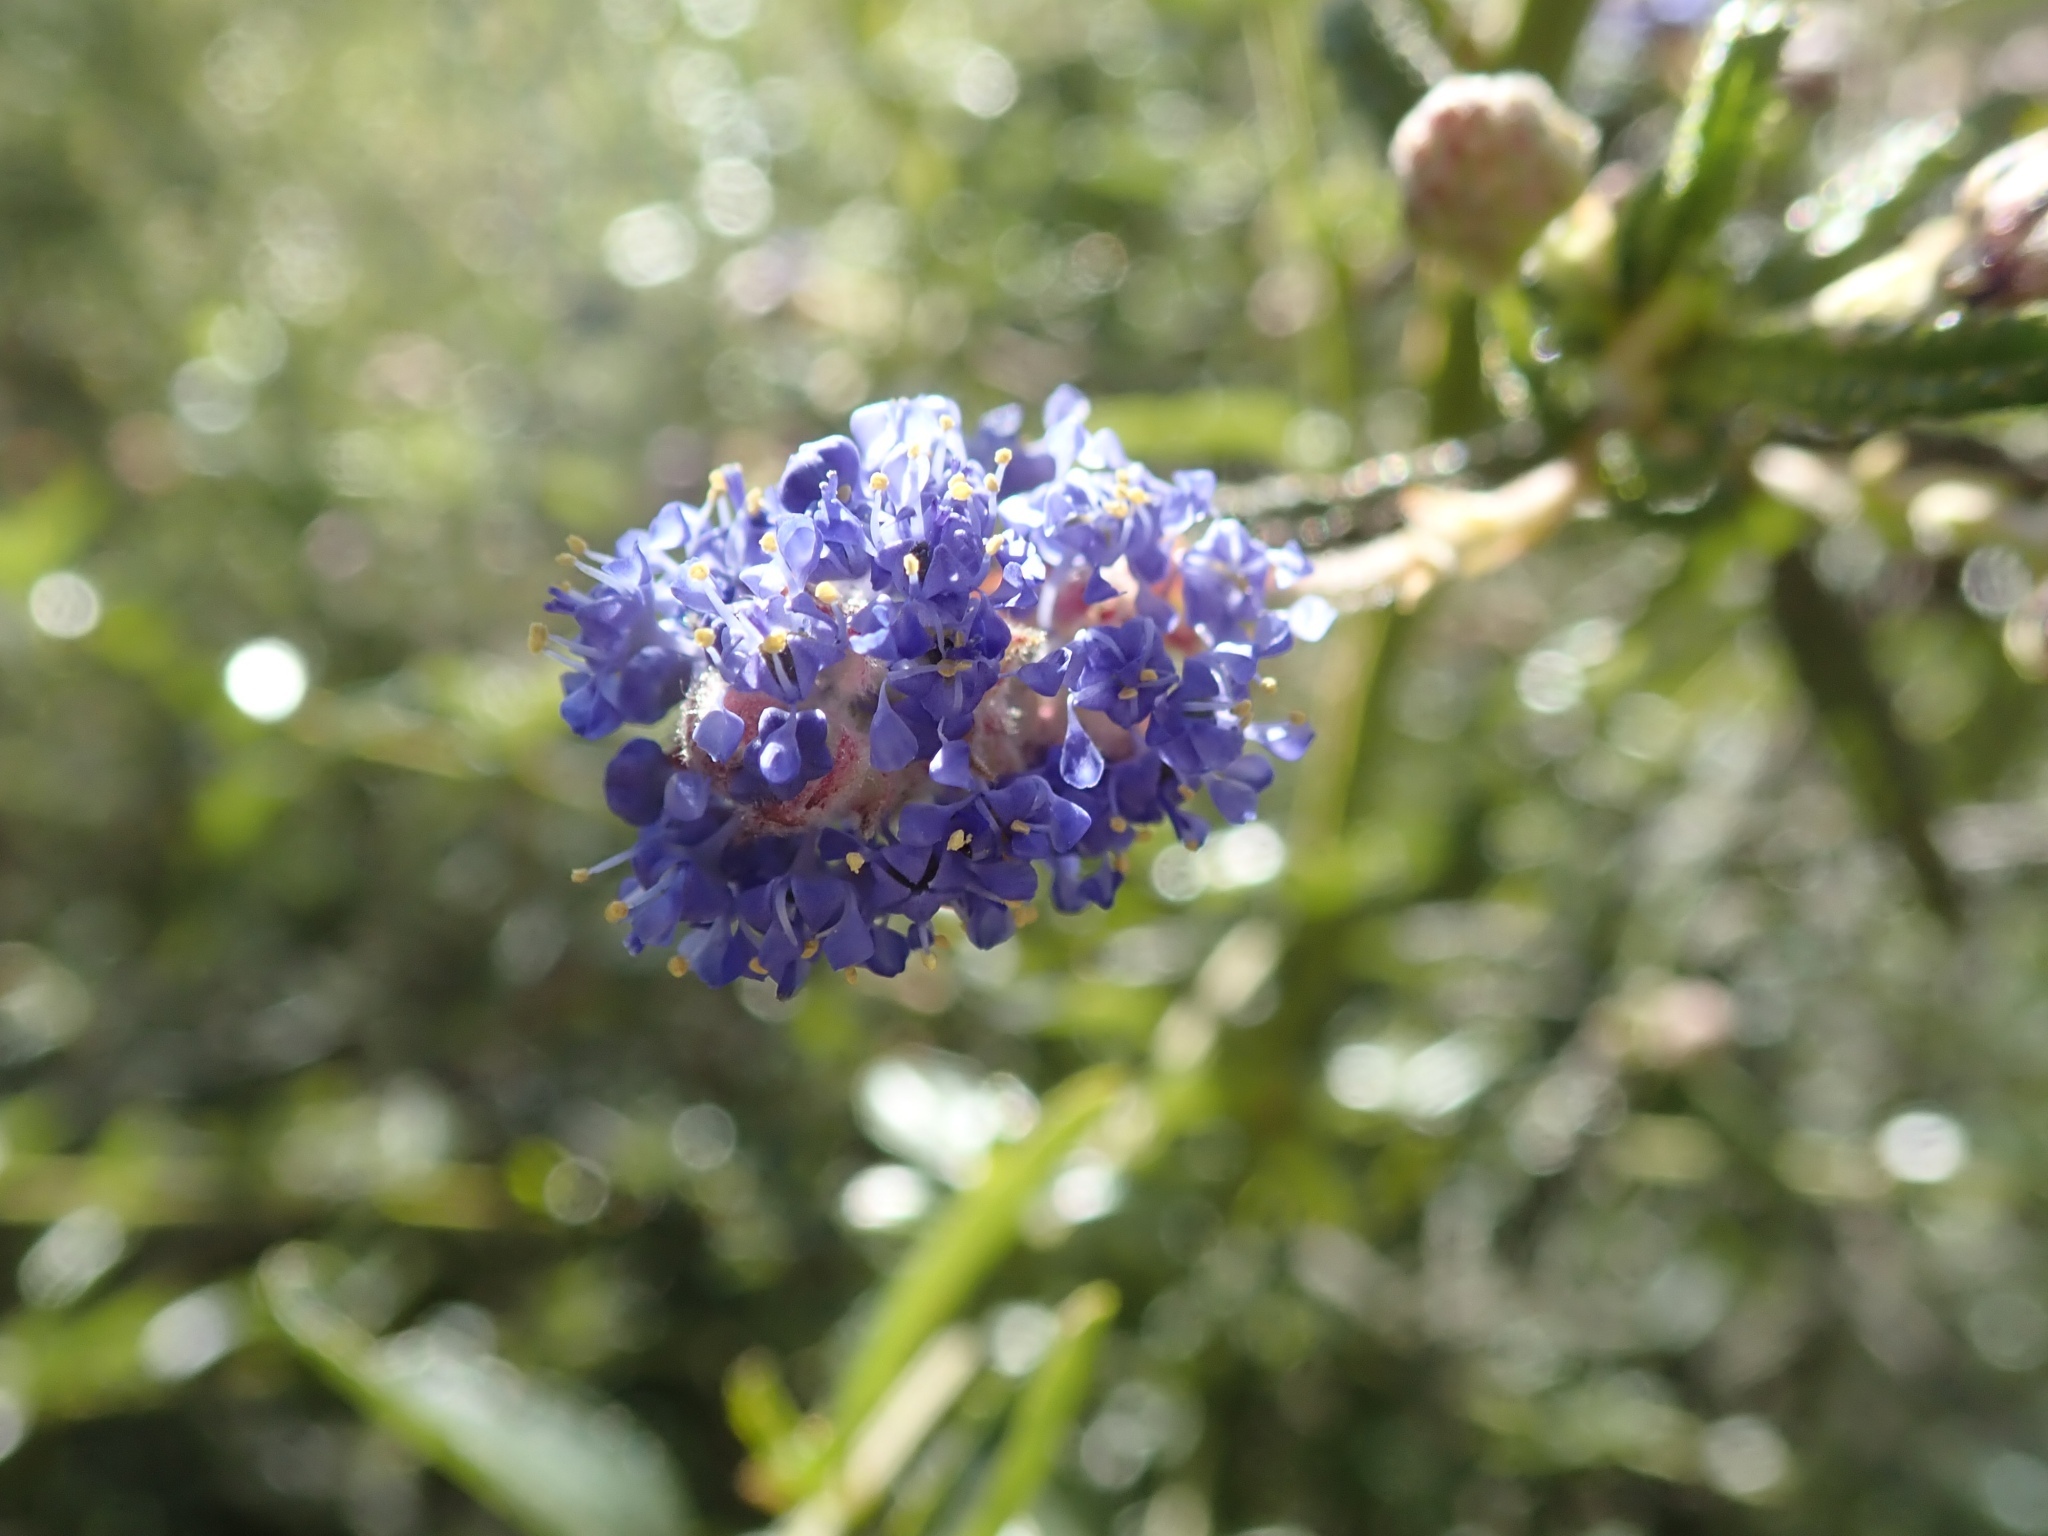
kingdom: Plantae
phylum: Tracheophyta
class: Magnoliopsida
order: Rosales
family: Rhamnaceae
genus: Ceanothus
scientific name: Ceanothus thyrsiflorus
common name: California-lilac
